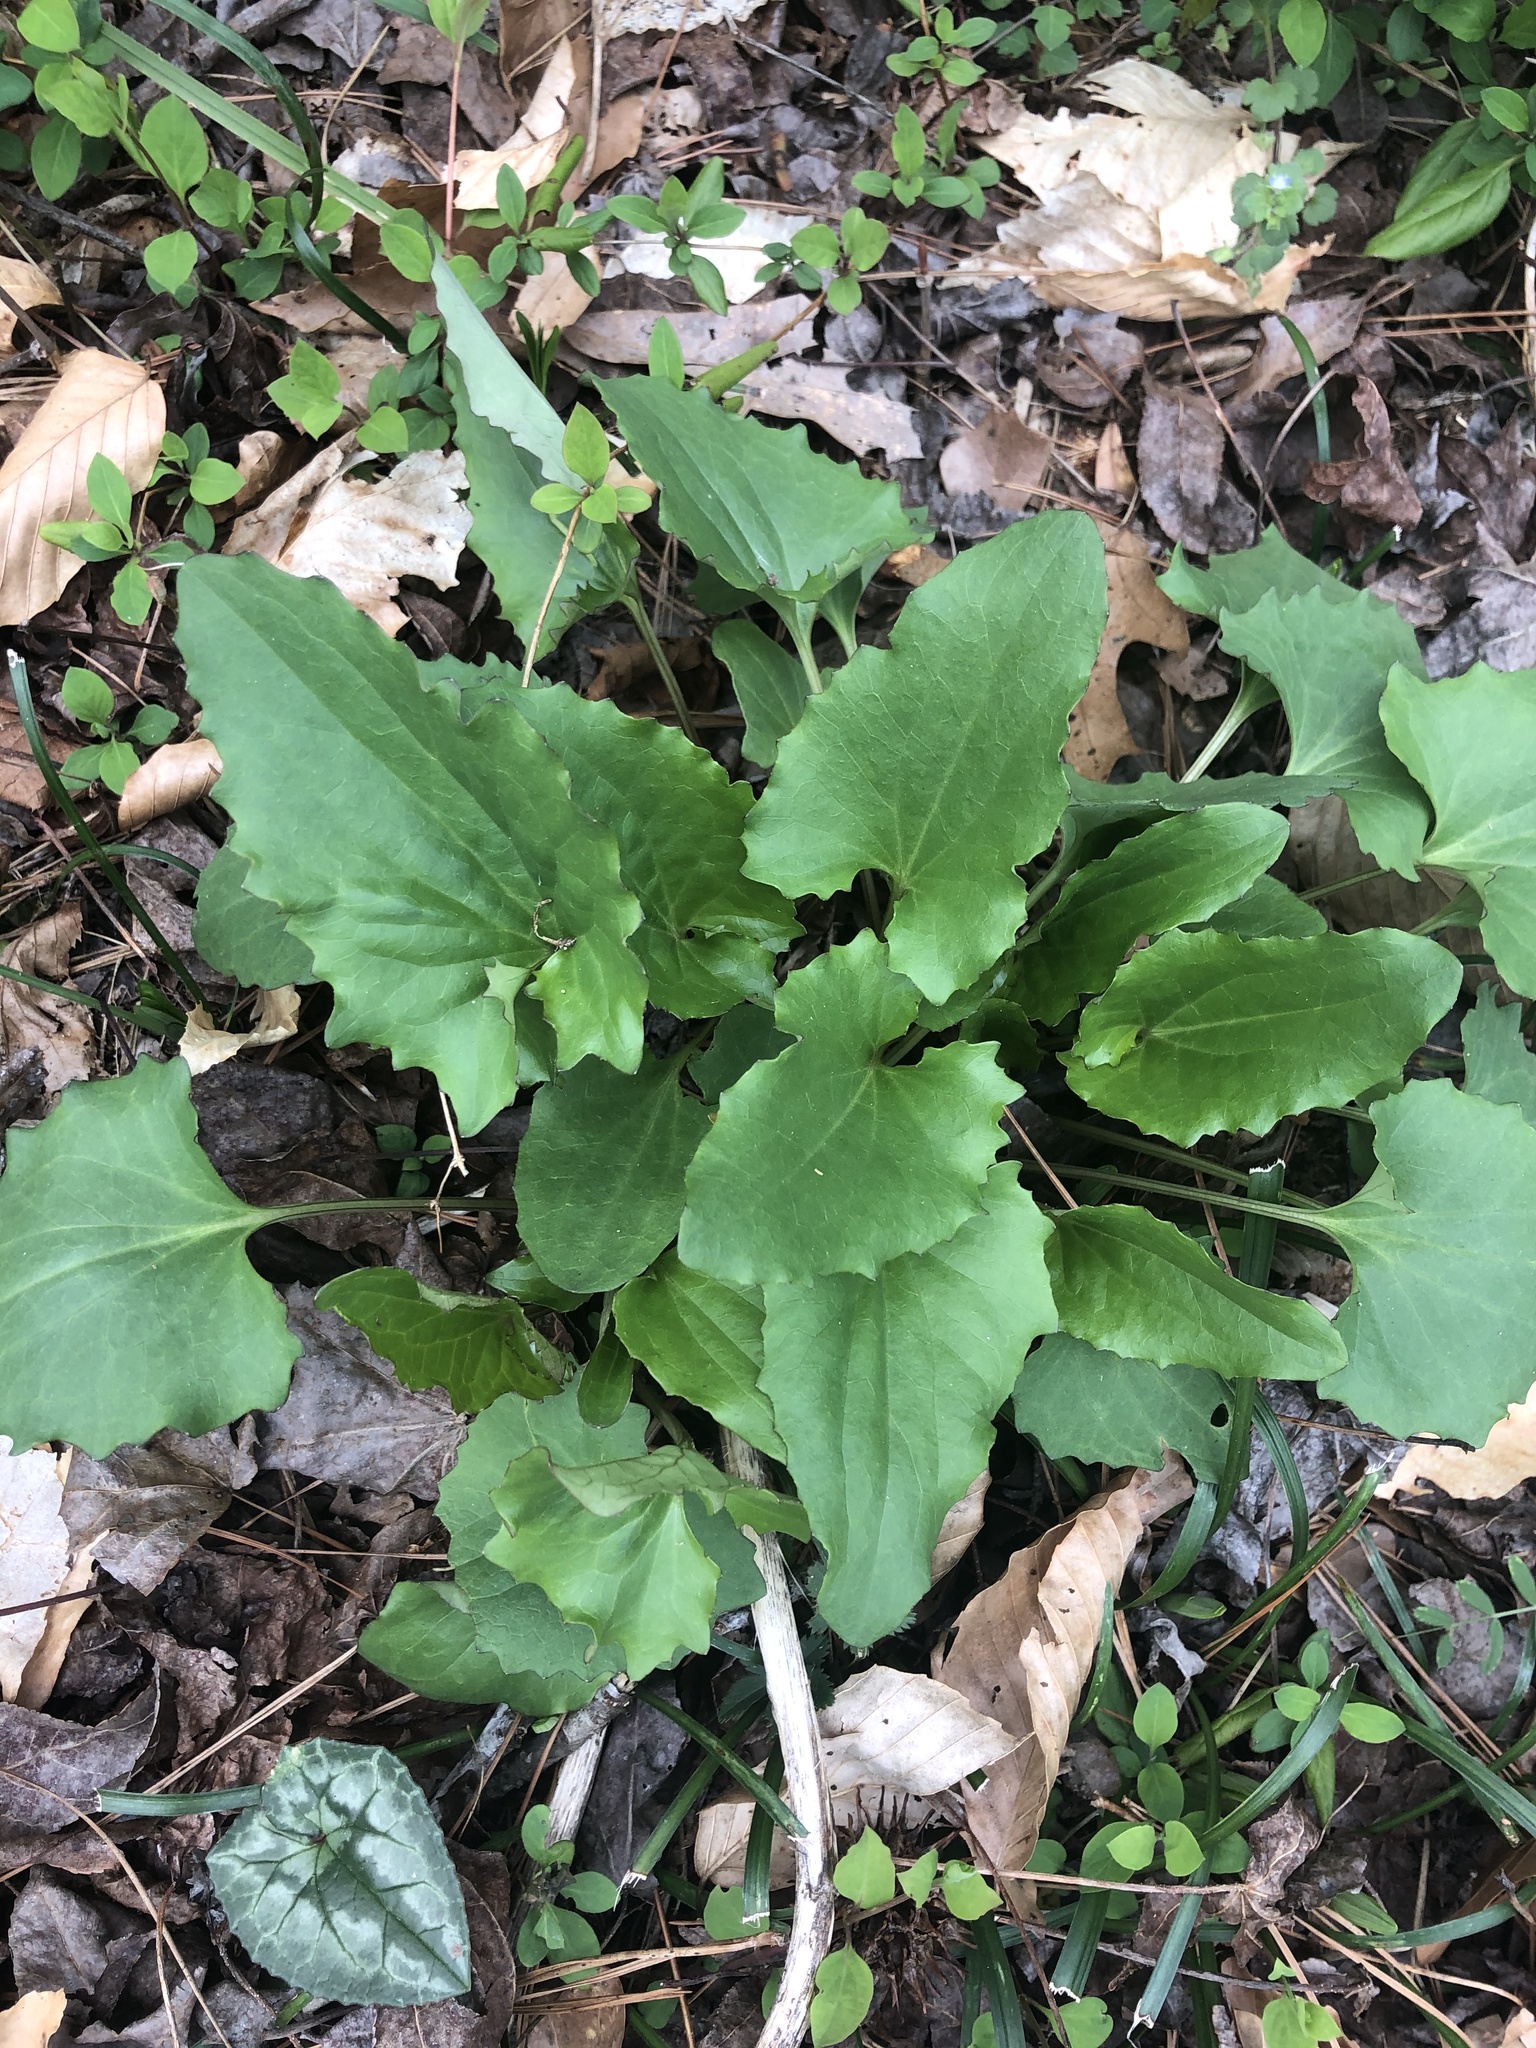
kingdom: Plantae
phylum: Tracheophyta
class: Magnoliopsida
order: Asterales
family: Asteraceae
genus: Arnoglossum
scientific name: Arnoglossum atriplicifolium
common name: Pale indian-plantain
